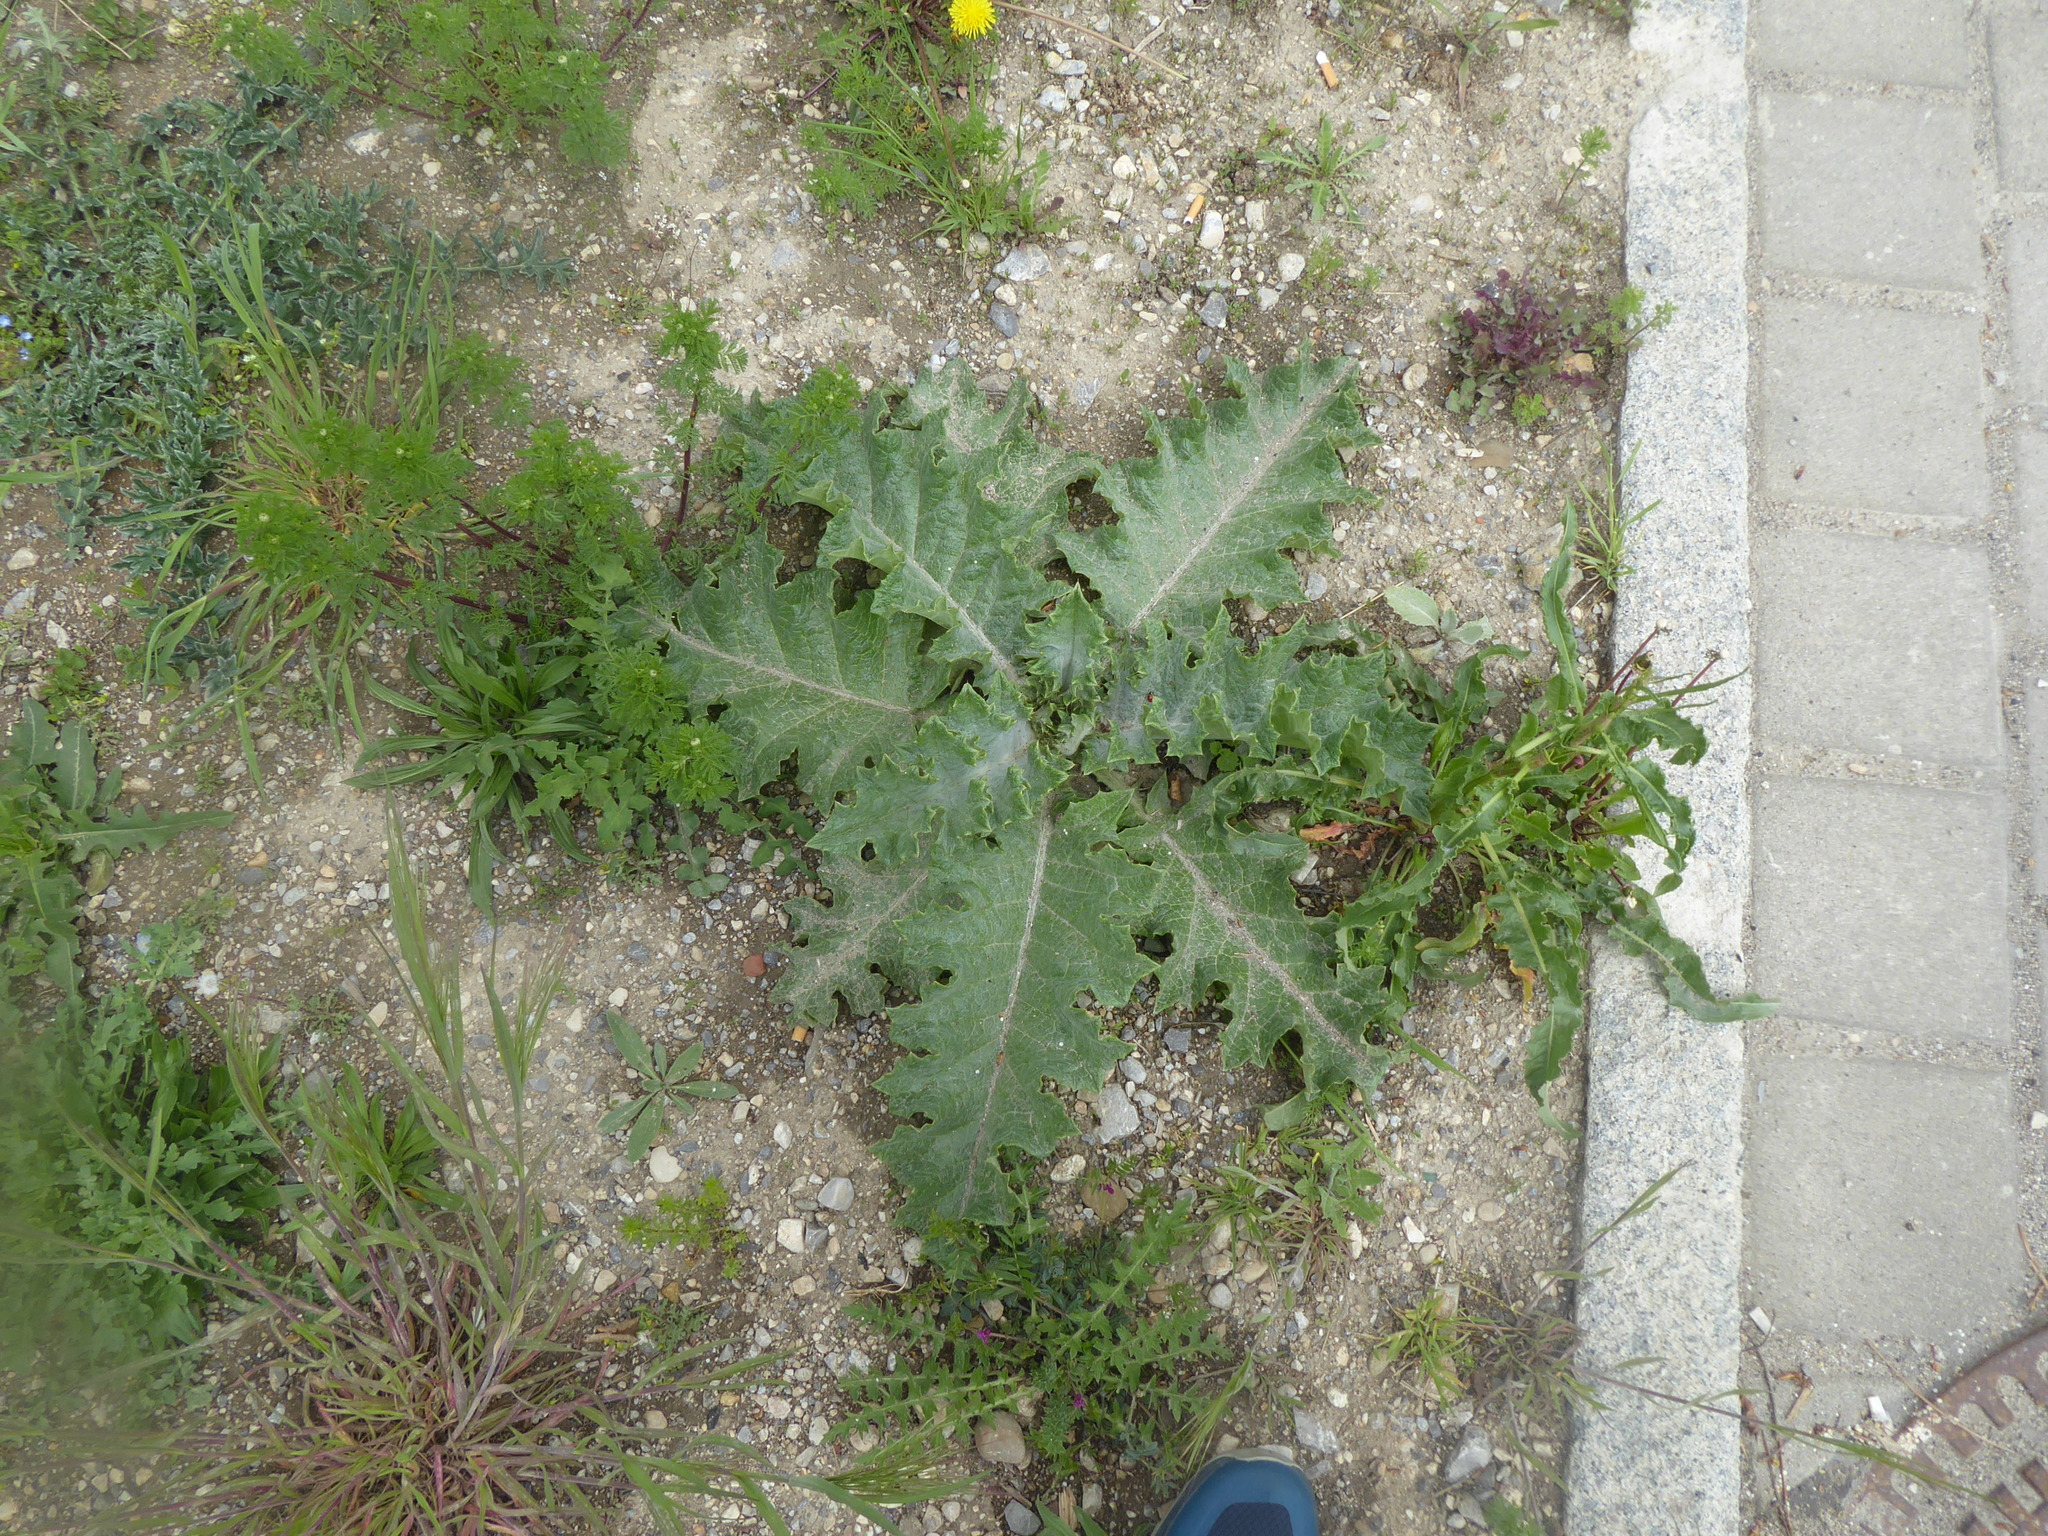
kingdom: Plantae
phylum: Tracheophyta
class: Magnoliopsida
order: Asterales
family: Asteraceae
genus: Onopordum
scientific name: Onopordum acanthium
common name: Scotch thistle
